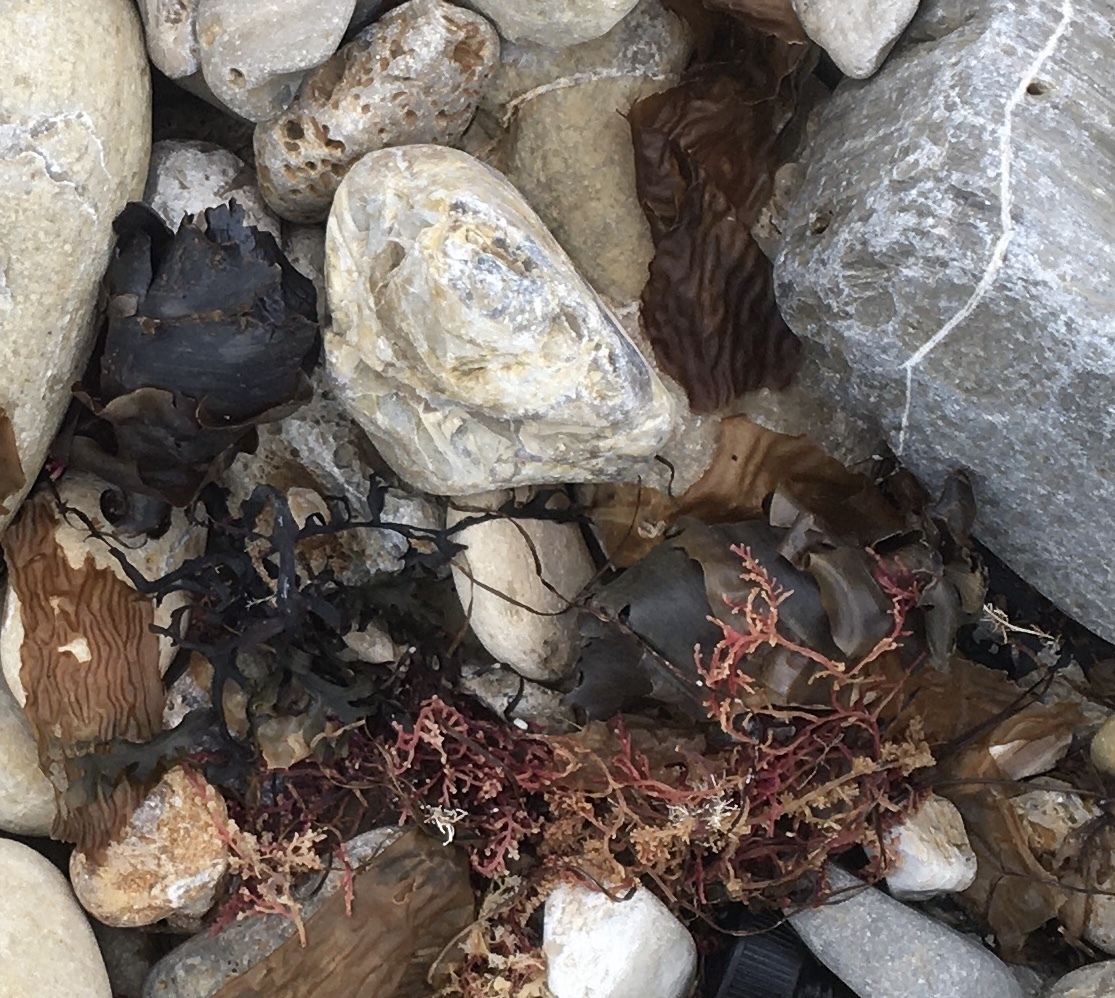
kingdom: Animalia
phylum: Chordata
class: Elasmobranchii
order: Heterodontiformes
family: Heterodontidae
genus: Heterodontus
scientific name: Heterodontus francisci
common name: Horn shark
